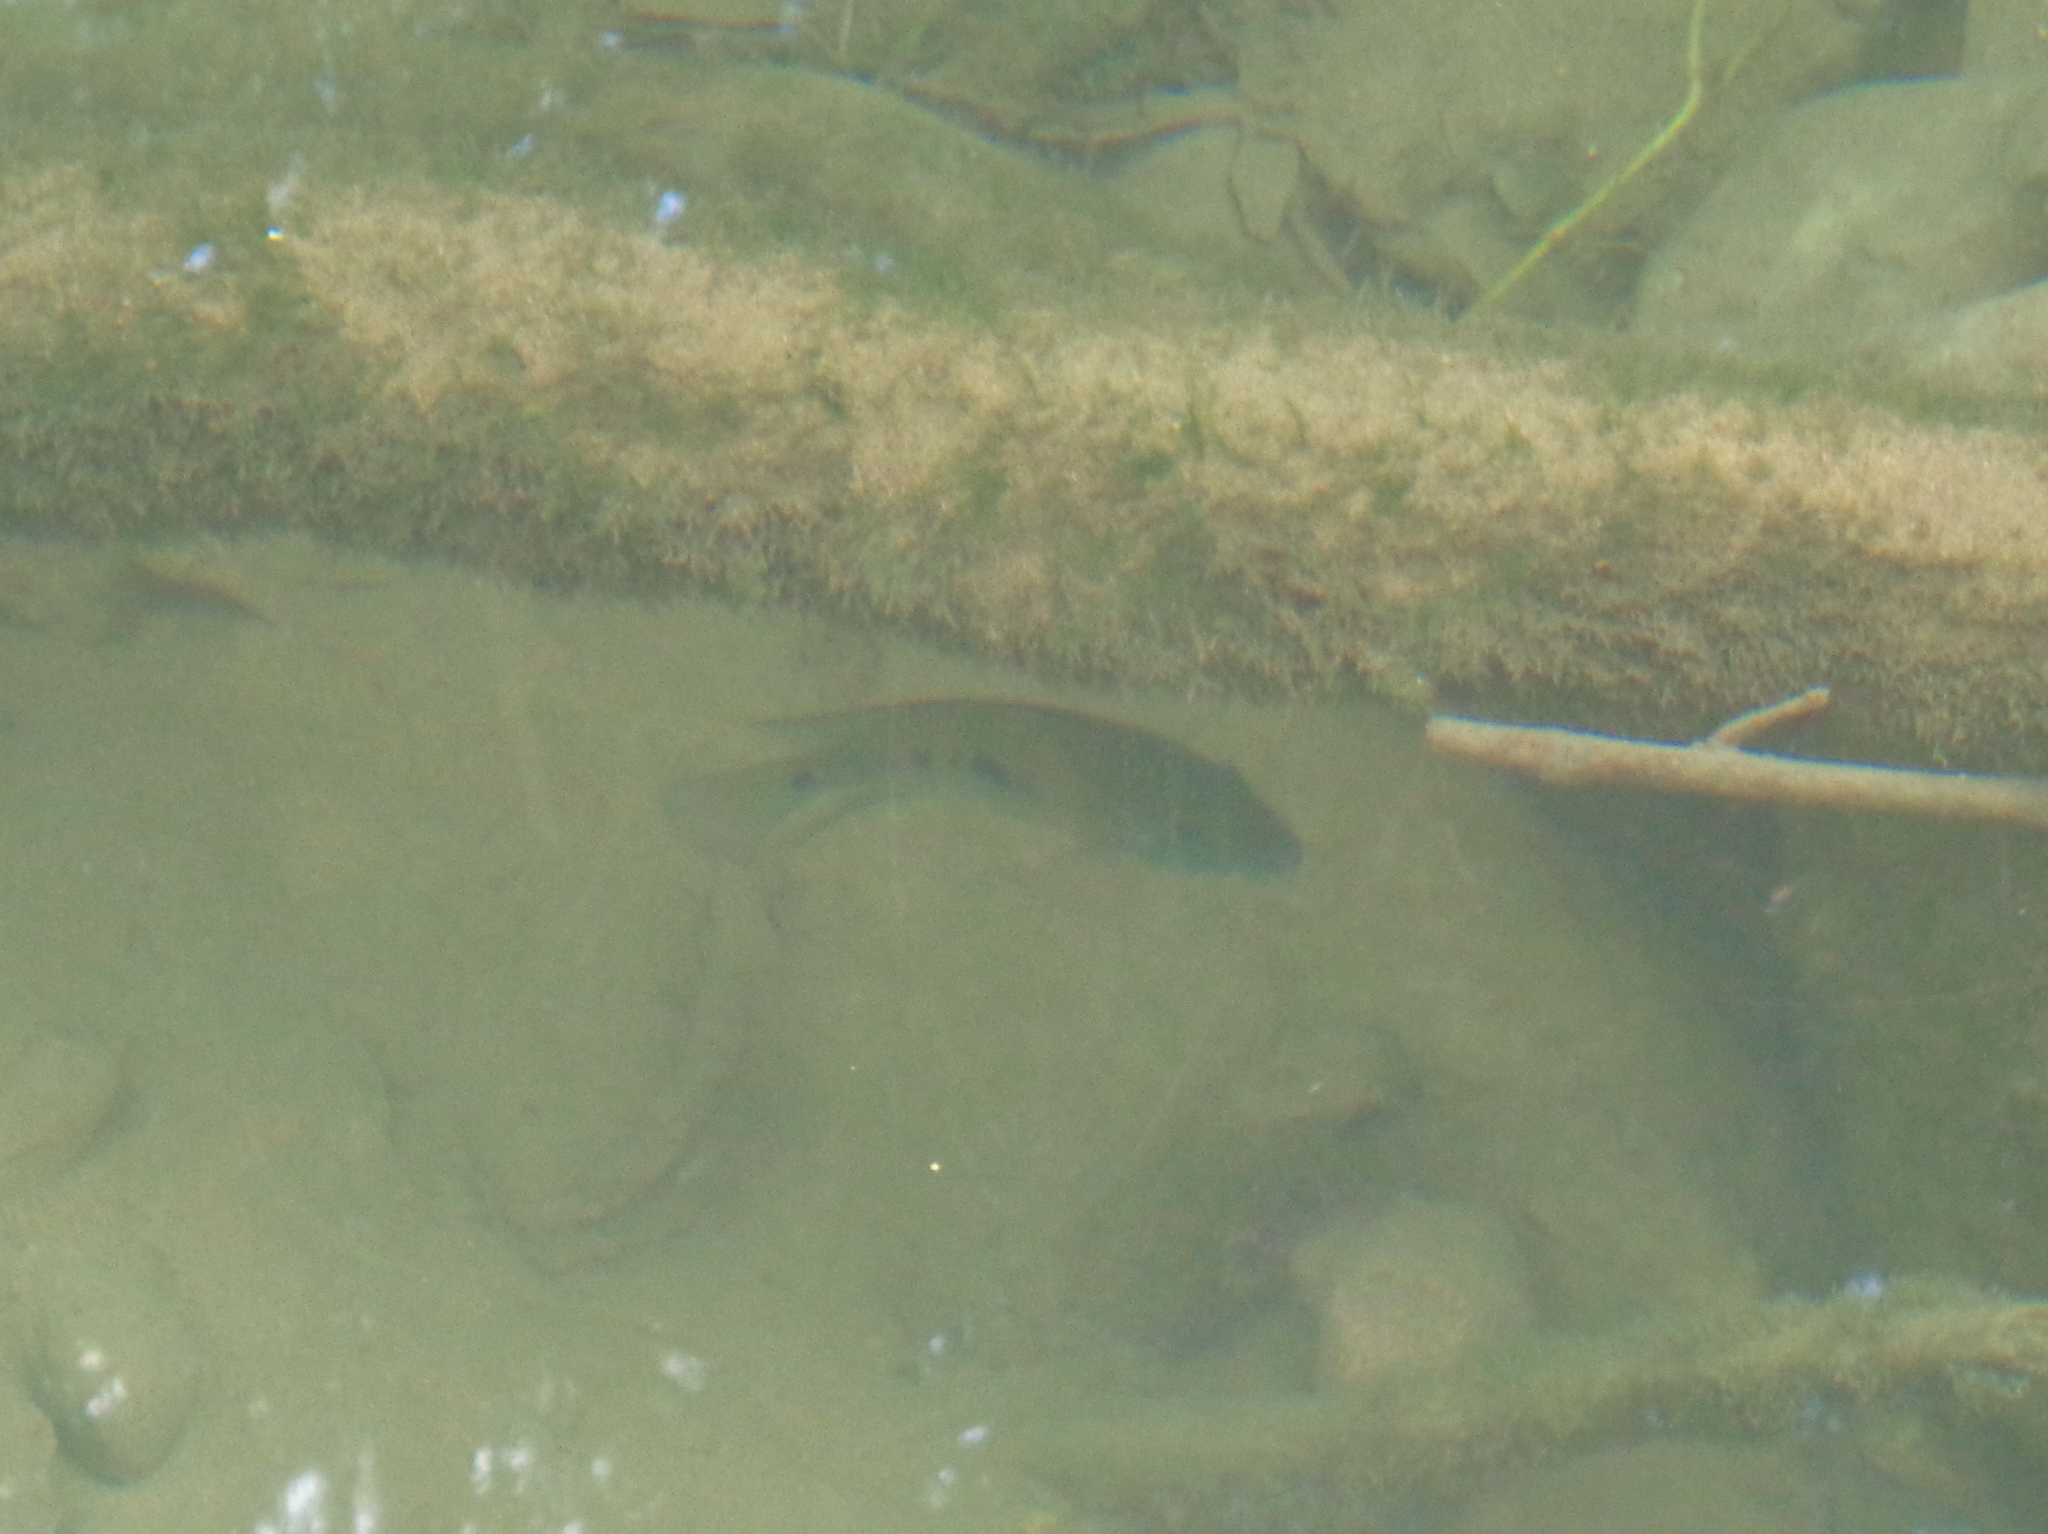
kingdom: Animalia
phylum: Chordata
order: Perciformes
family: Cichlidae
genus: Herichthys
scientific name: Herichthys cyanoguttatus
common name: Rio grande cichlid
